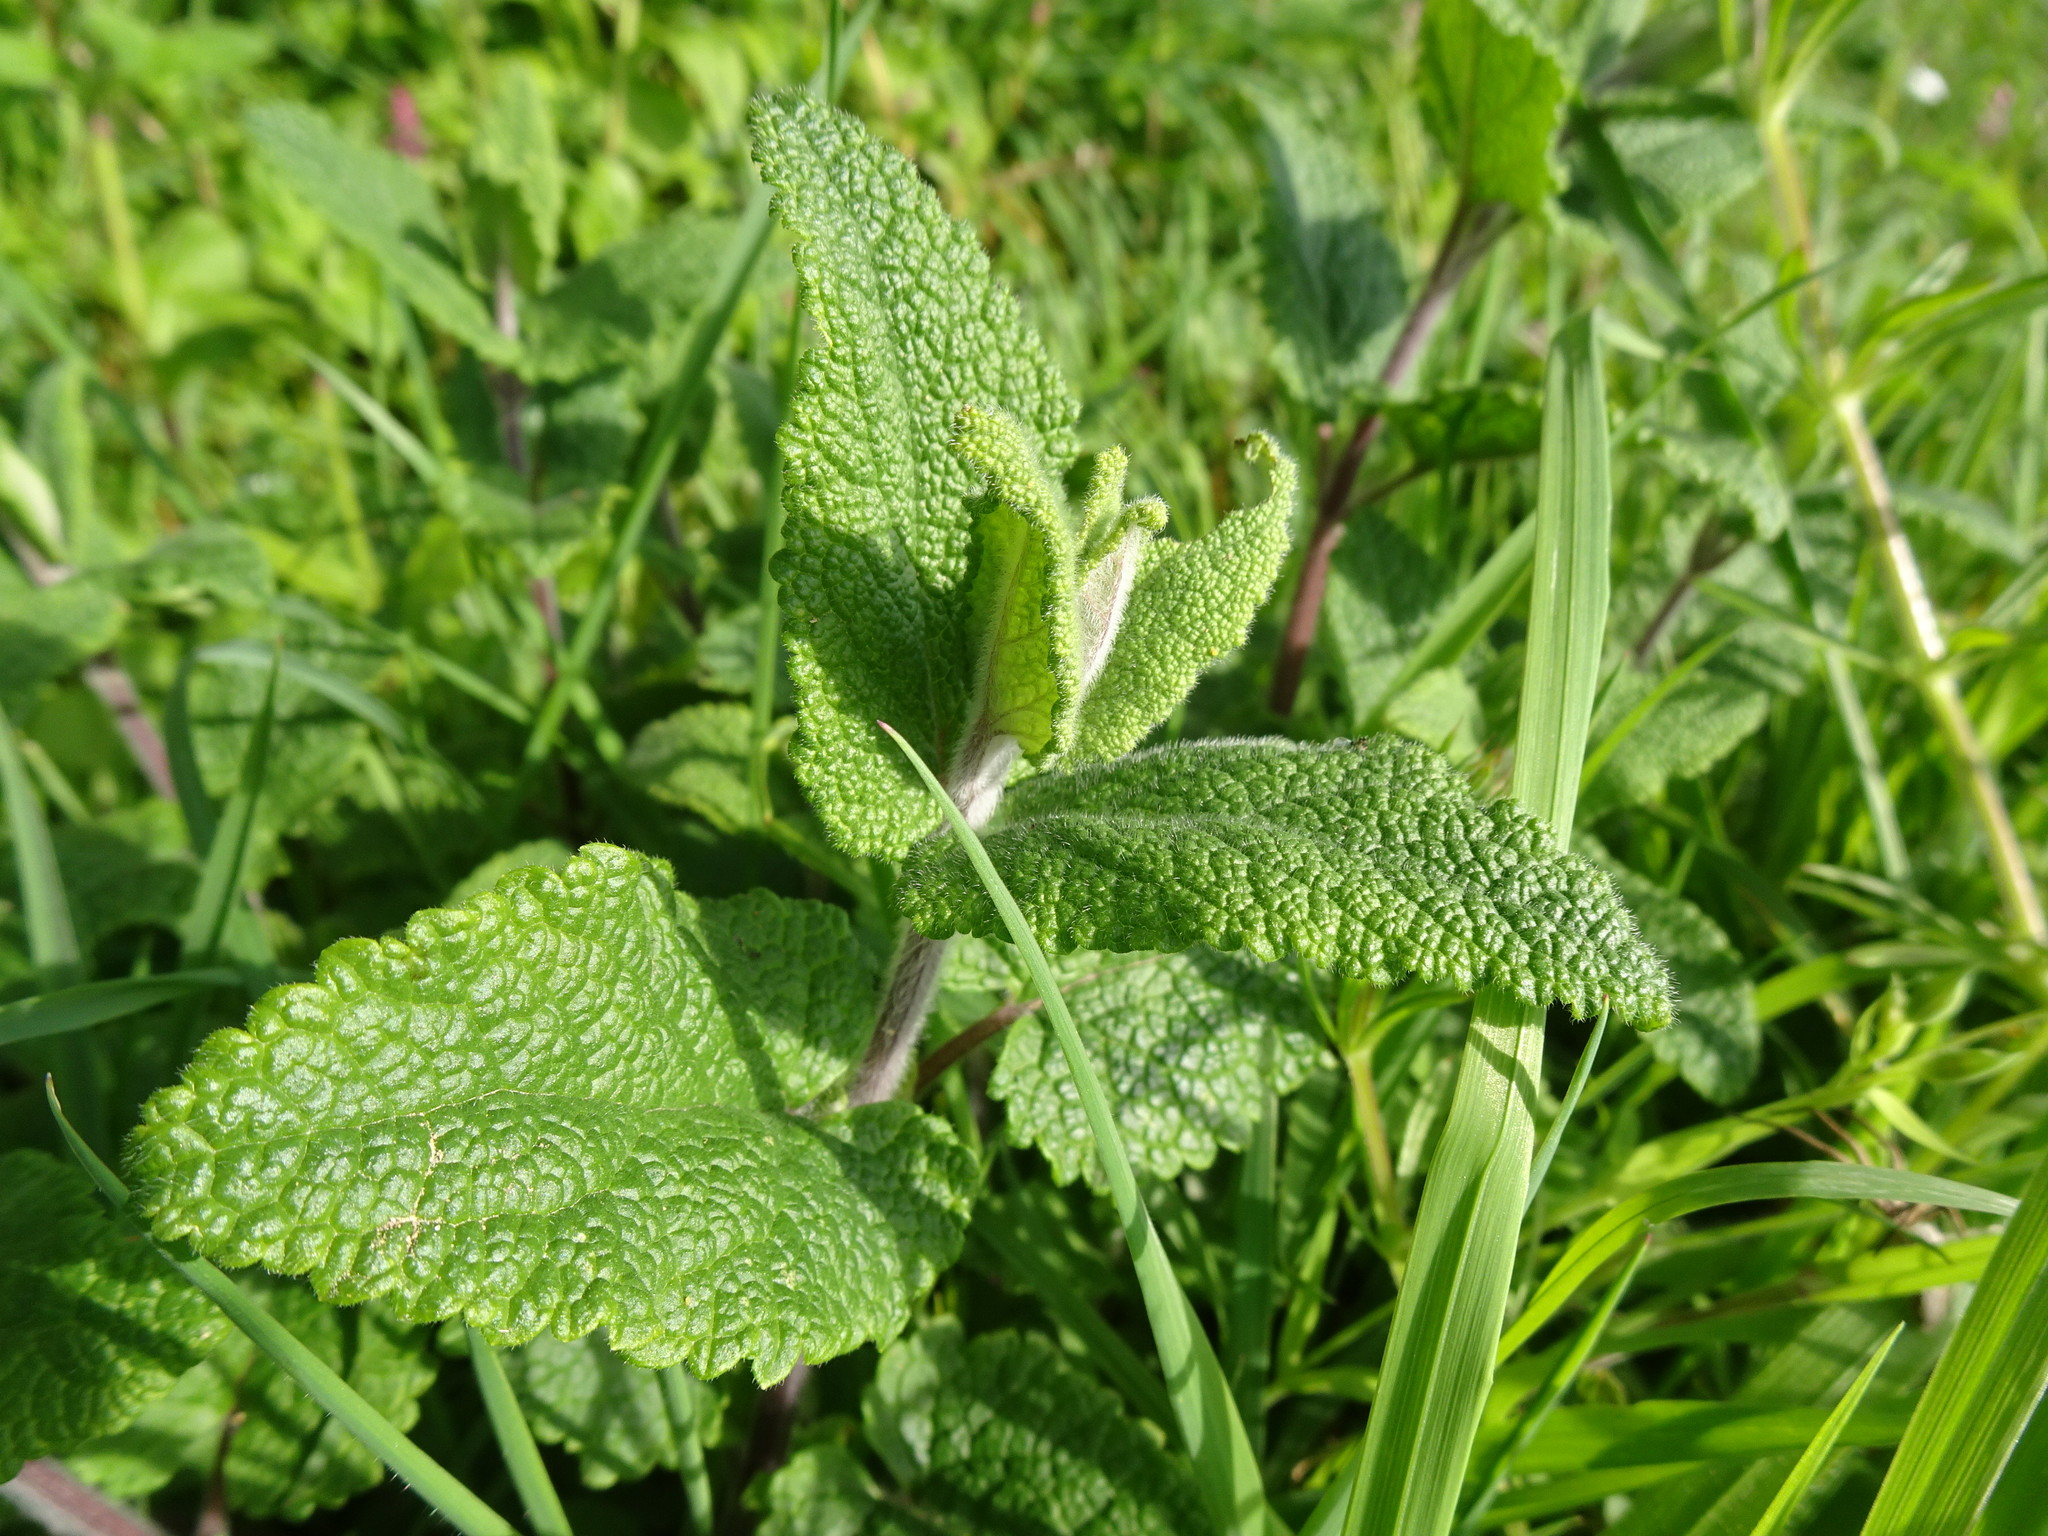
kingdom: Plantae
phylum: Tracheophyta
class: Magnoliopsida
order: Lamiales
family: Lamiaceae
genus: Teucrium
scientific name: Teucrium scorodonia
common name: Woodland germander
